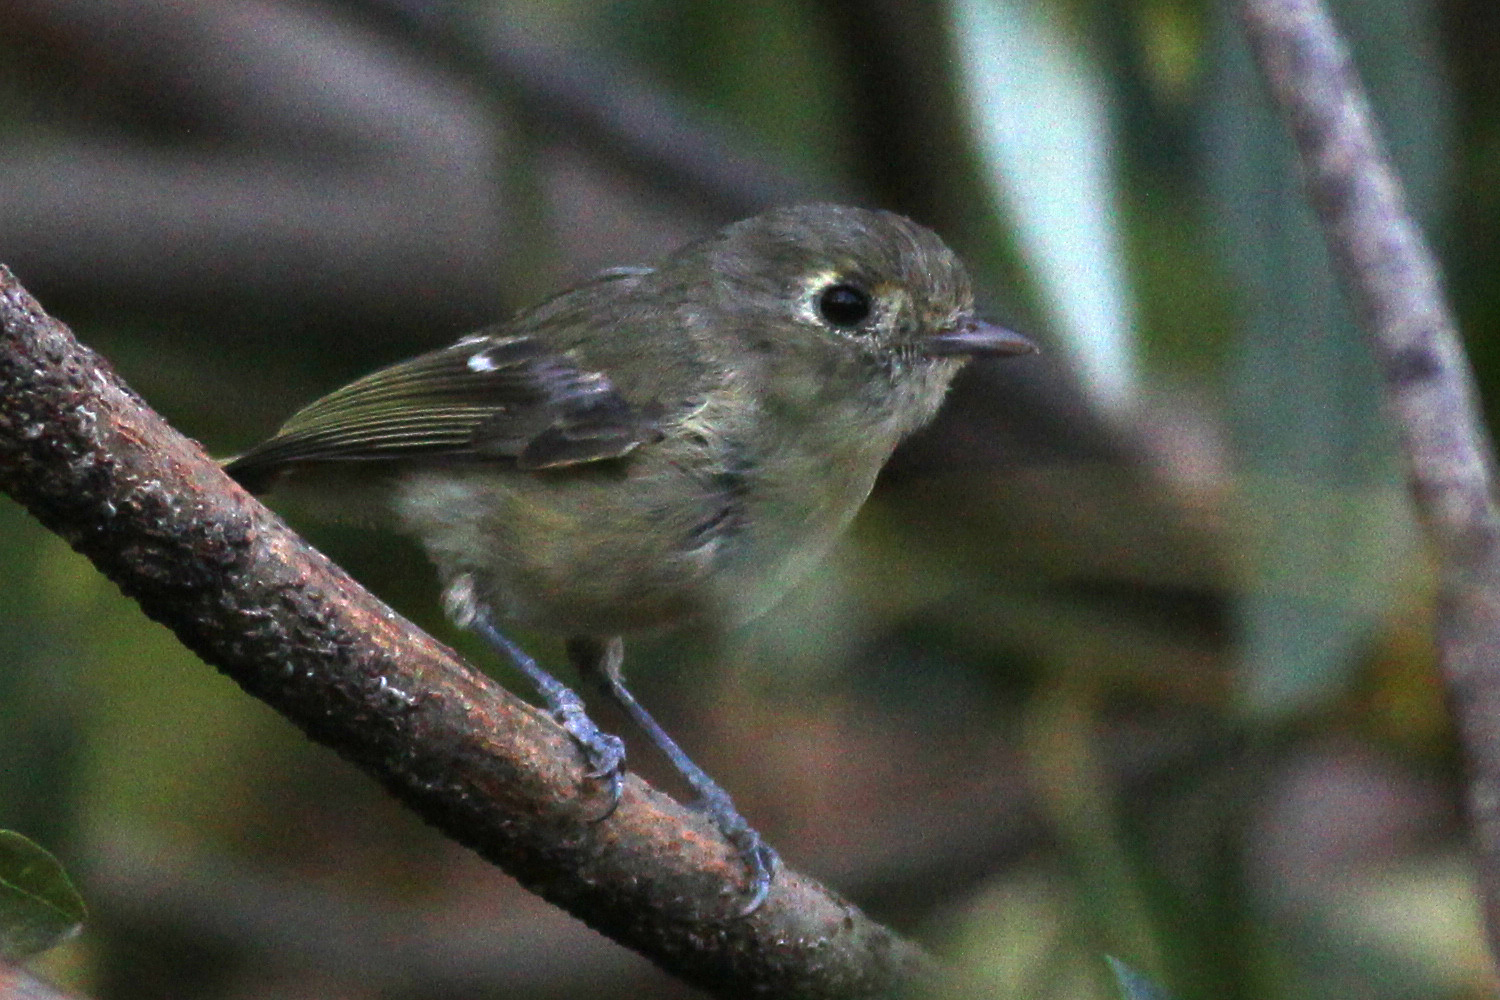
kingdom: Animalia
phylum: Chordata
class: Aves
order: Passeriformes
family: Vireonidae
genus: Vireo
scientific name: Vireo huttoni
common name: Hutton's vireo
